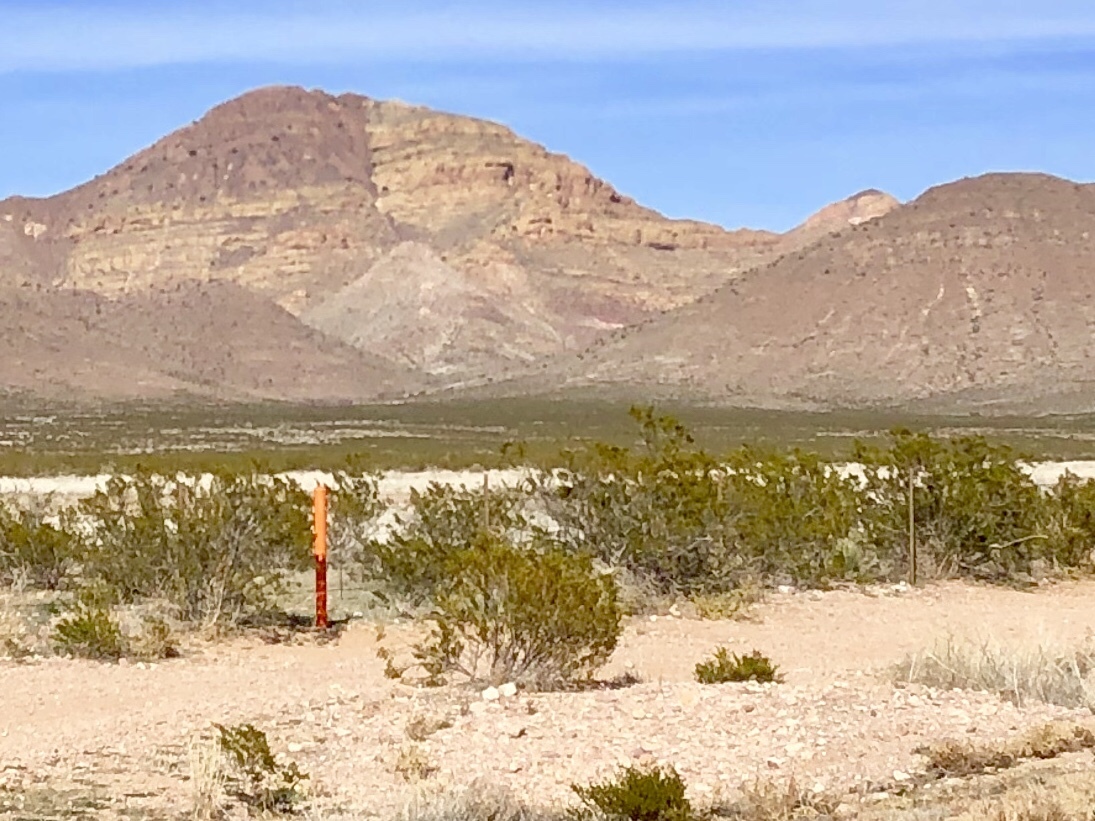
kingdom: Plantae
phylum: Tracheophyta
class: Magnoliopsida
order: Zygophyllales
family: Zygophyllaceae
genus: Larrea
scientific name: Larrea tridentata
